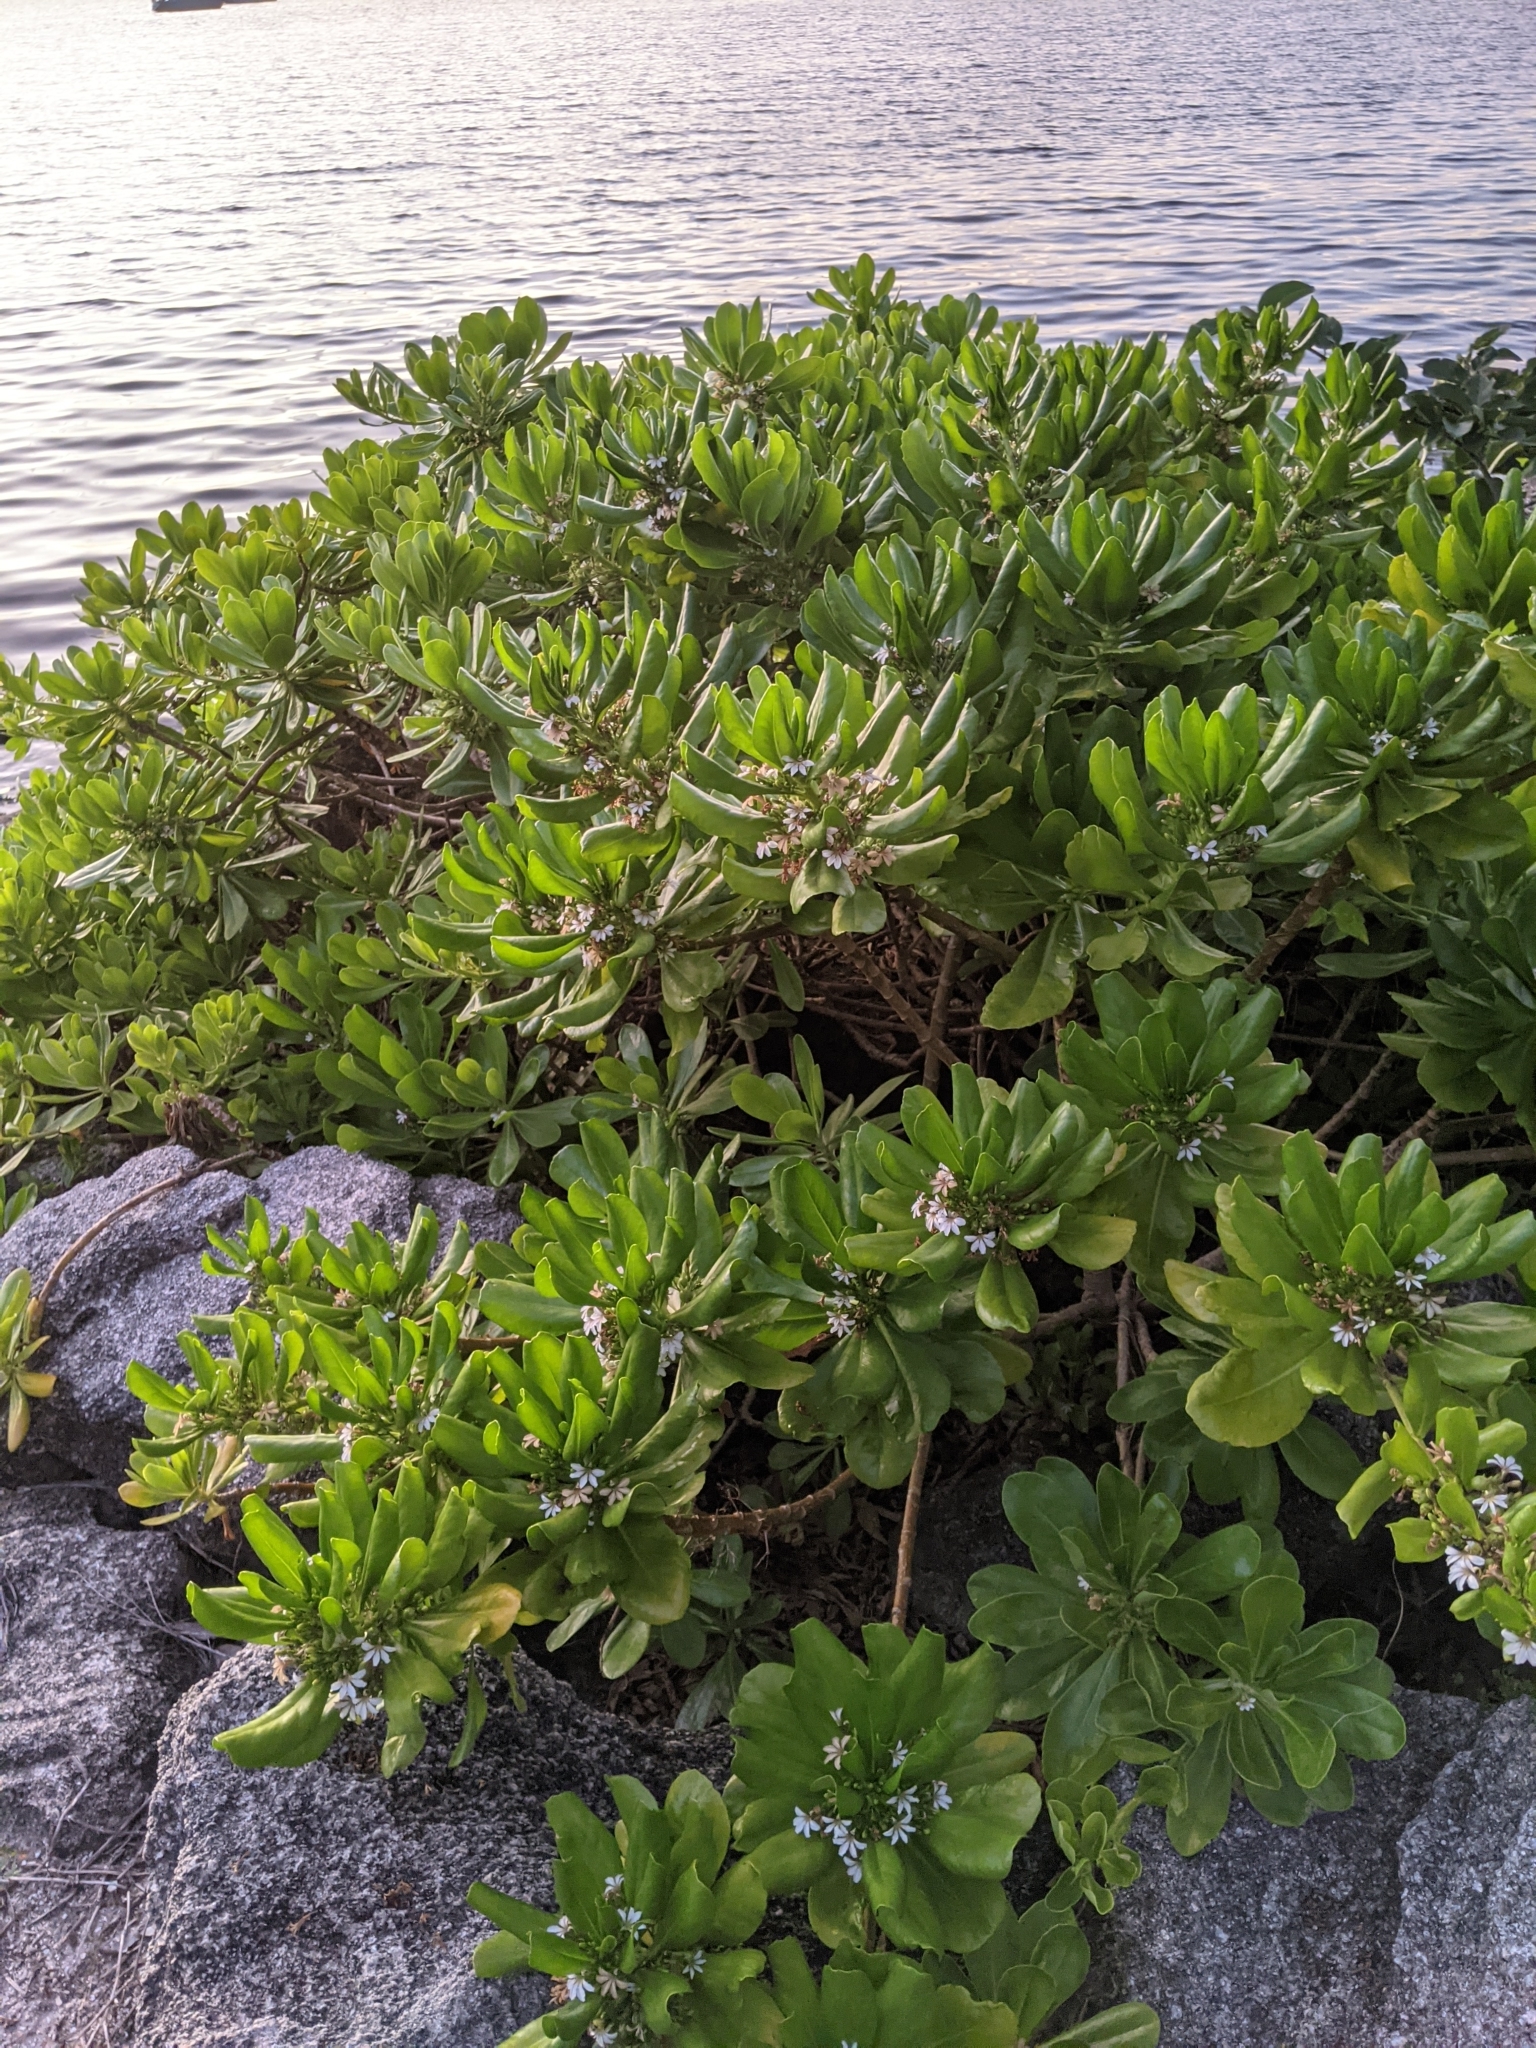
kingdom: Plantae
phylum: Tracheophyta
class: Magnoliopsida
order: Asterales
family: Goodeniaceae
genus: Scaevola
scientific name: Scaevola taccada
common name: Sea lettucetree
